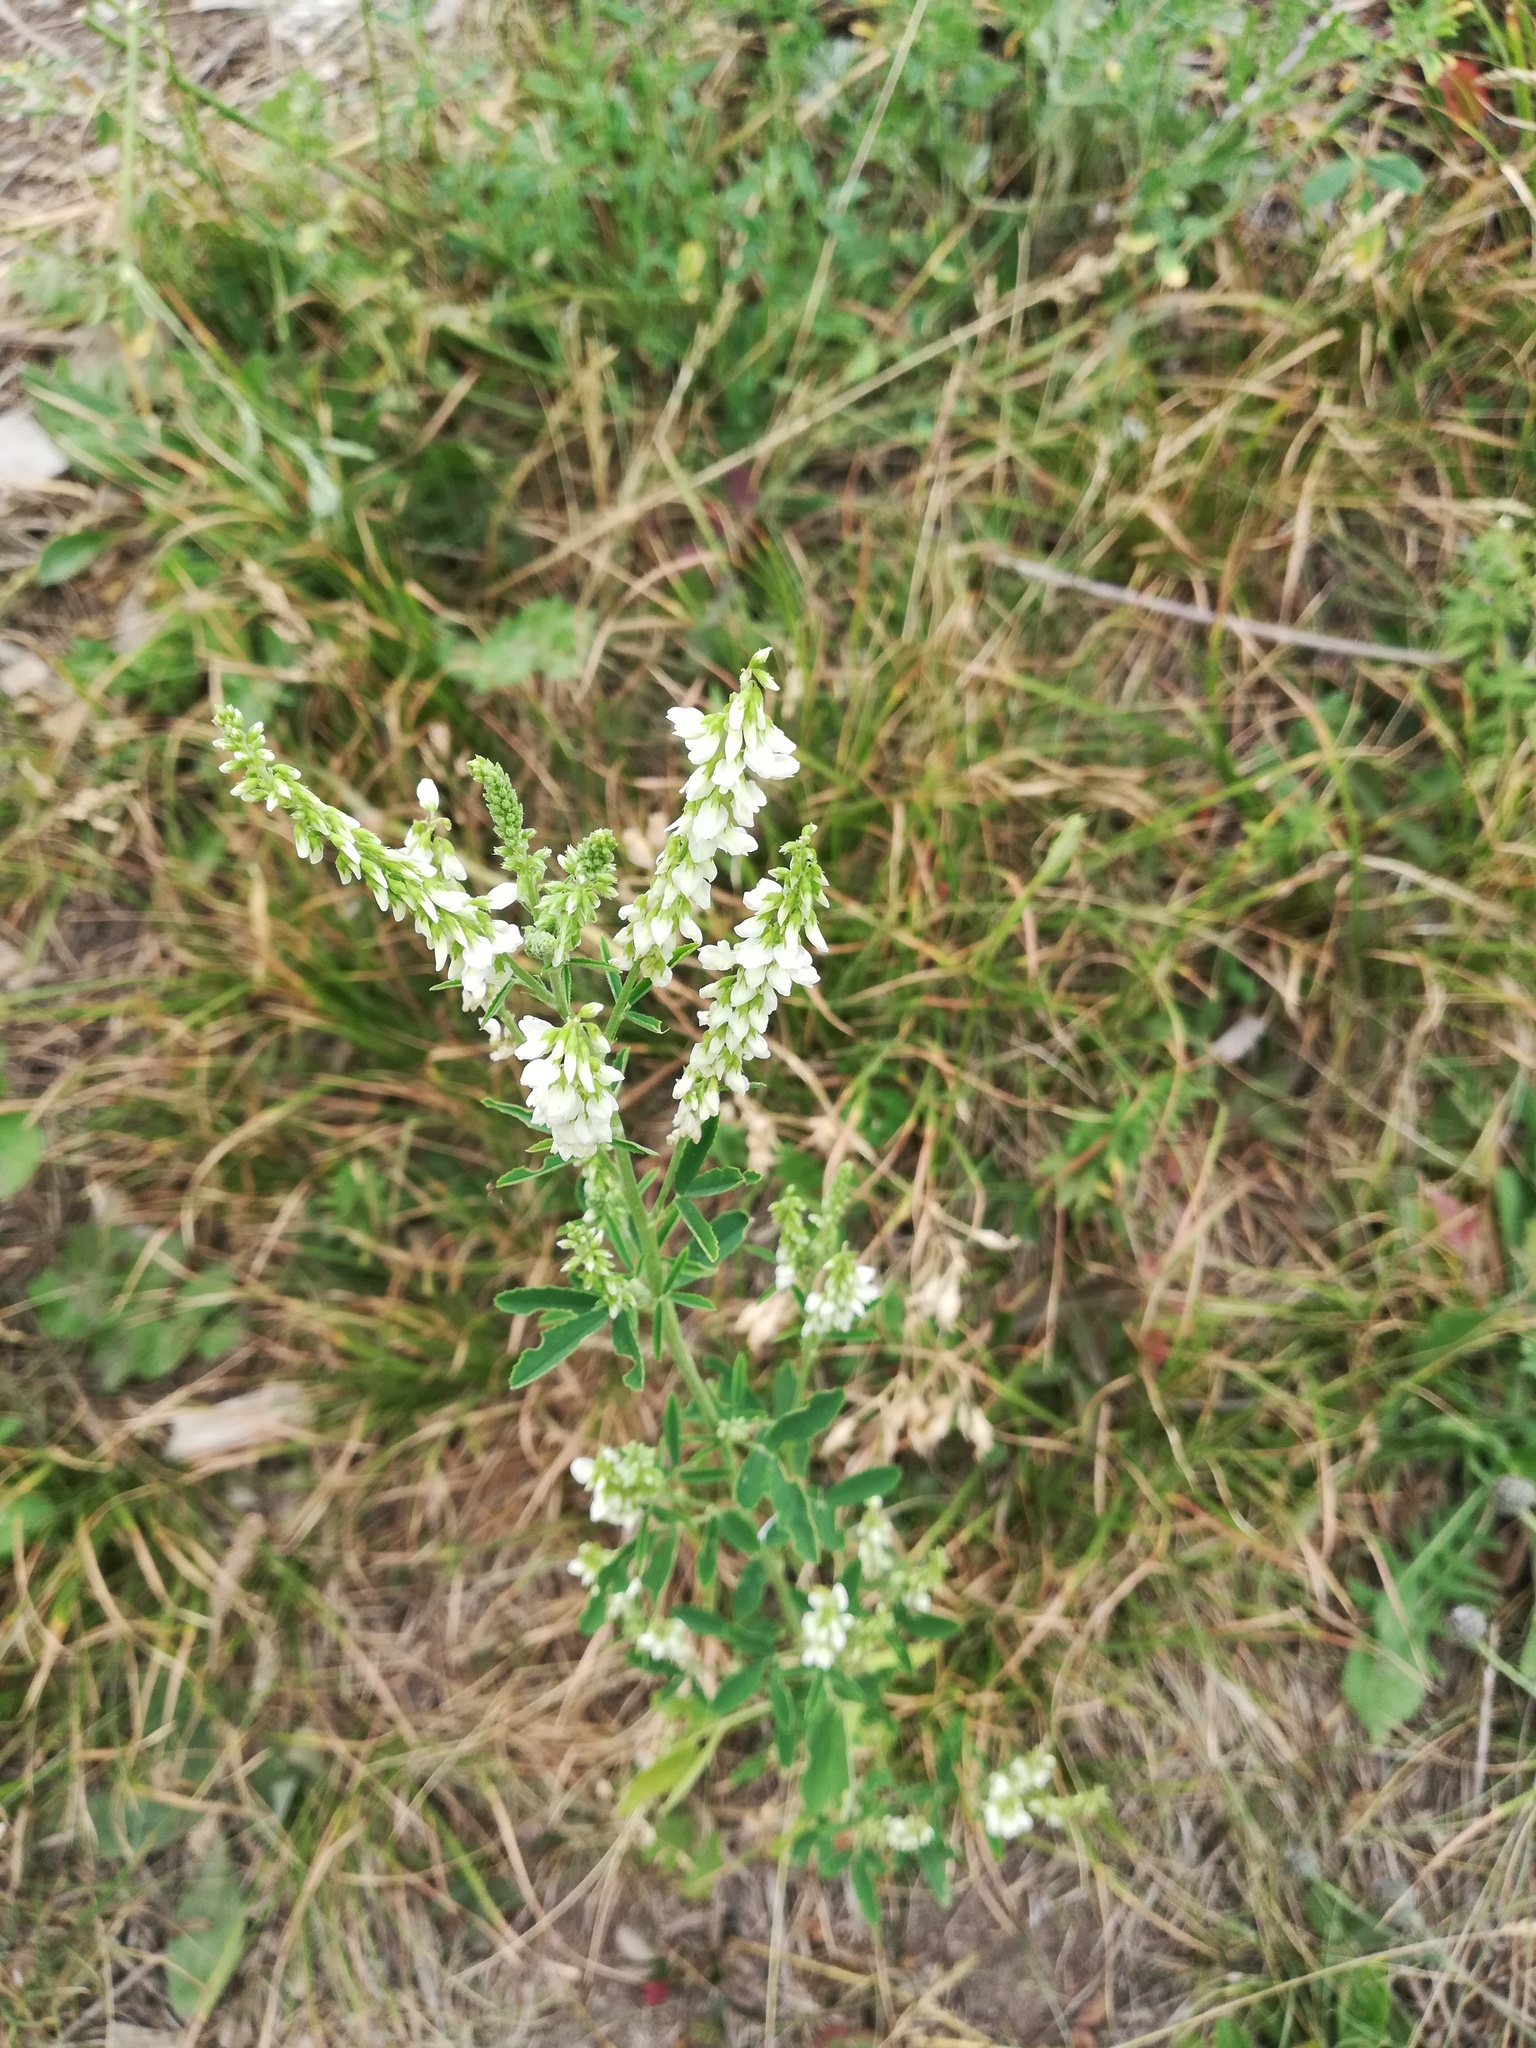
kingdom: Plantae
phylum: Tracheophyta
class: Magnoliopsida
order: Fabales
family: Fabaceae
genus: Melilotus
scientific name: Melilotus albus
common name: White melilot
